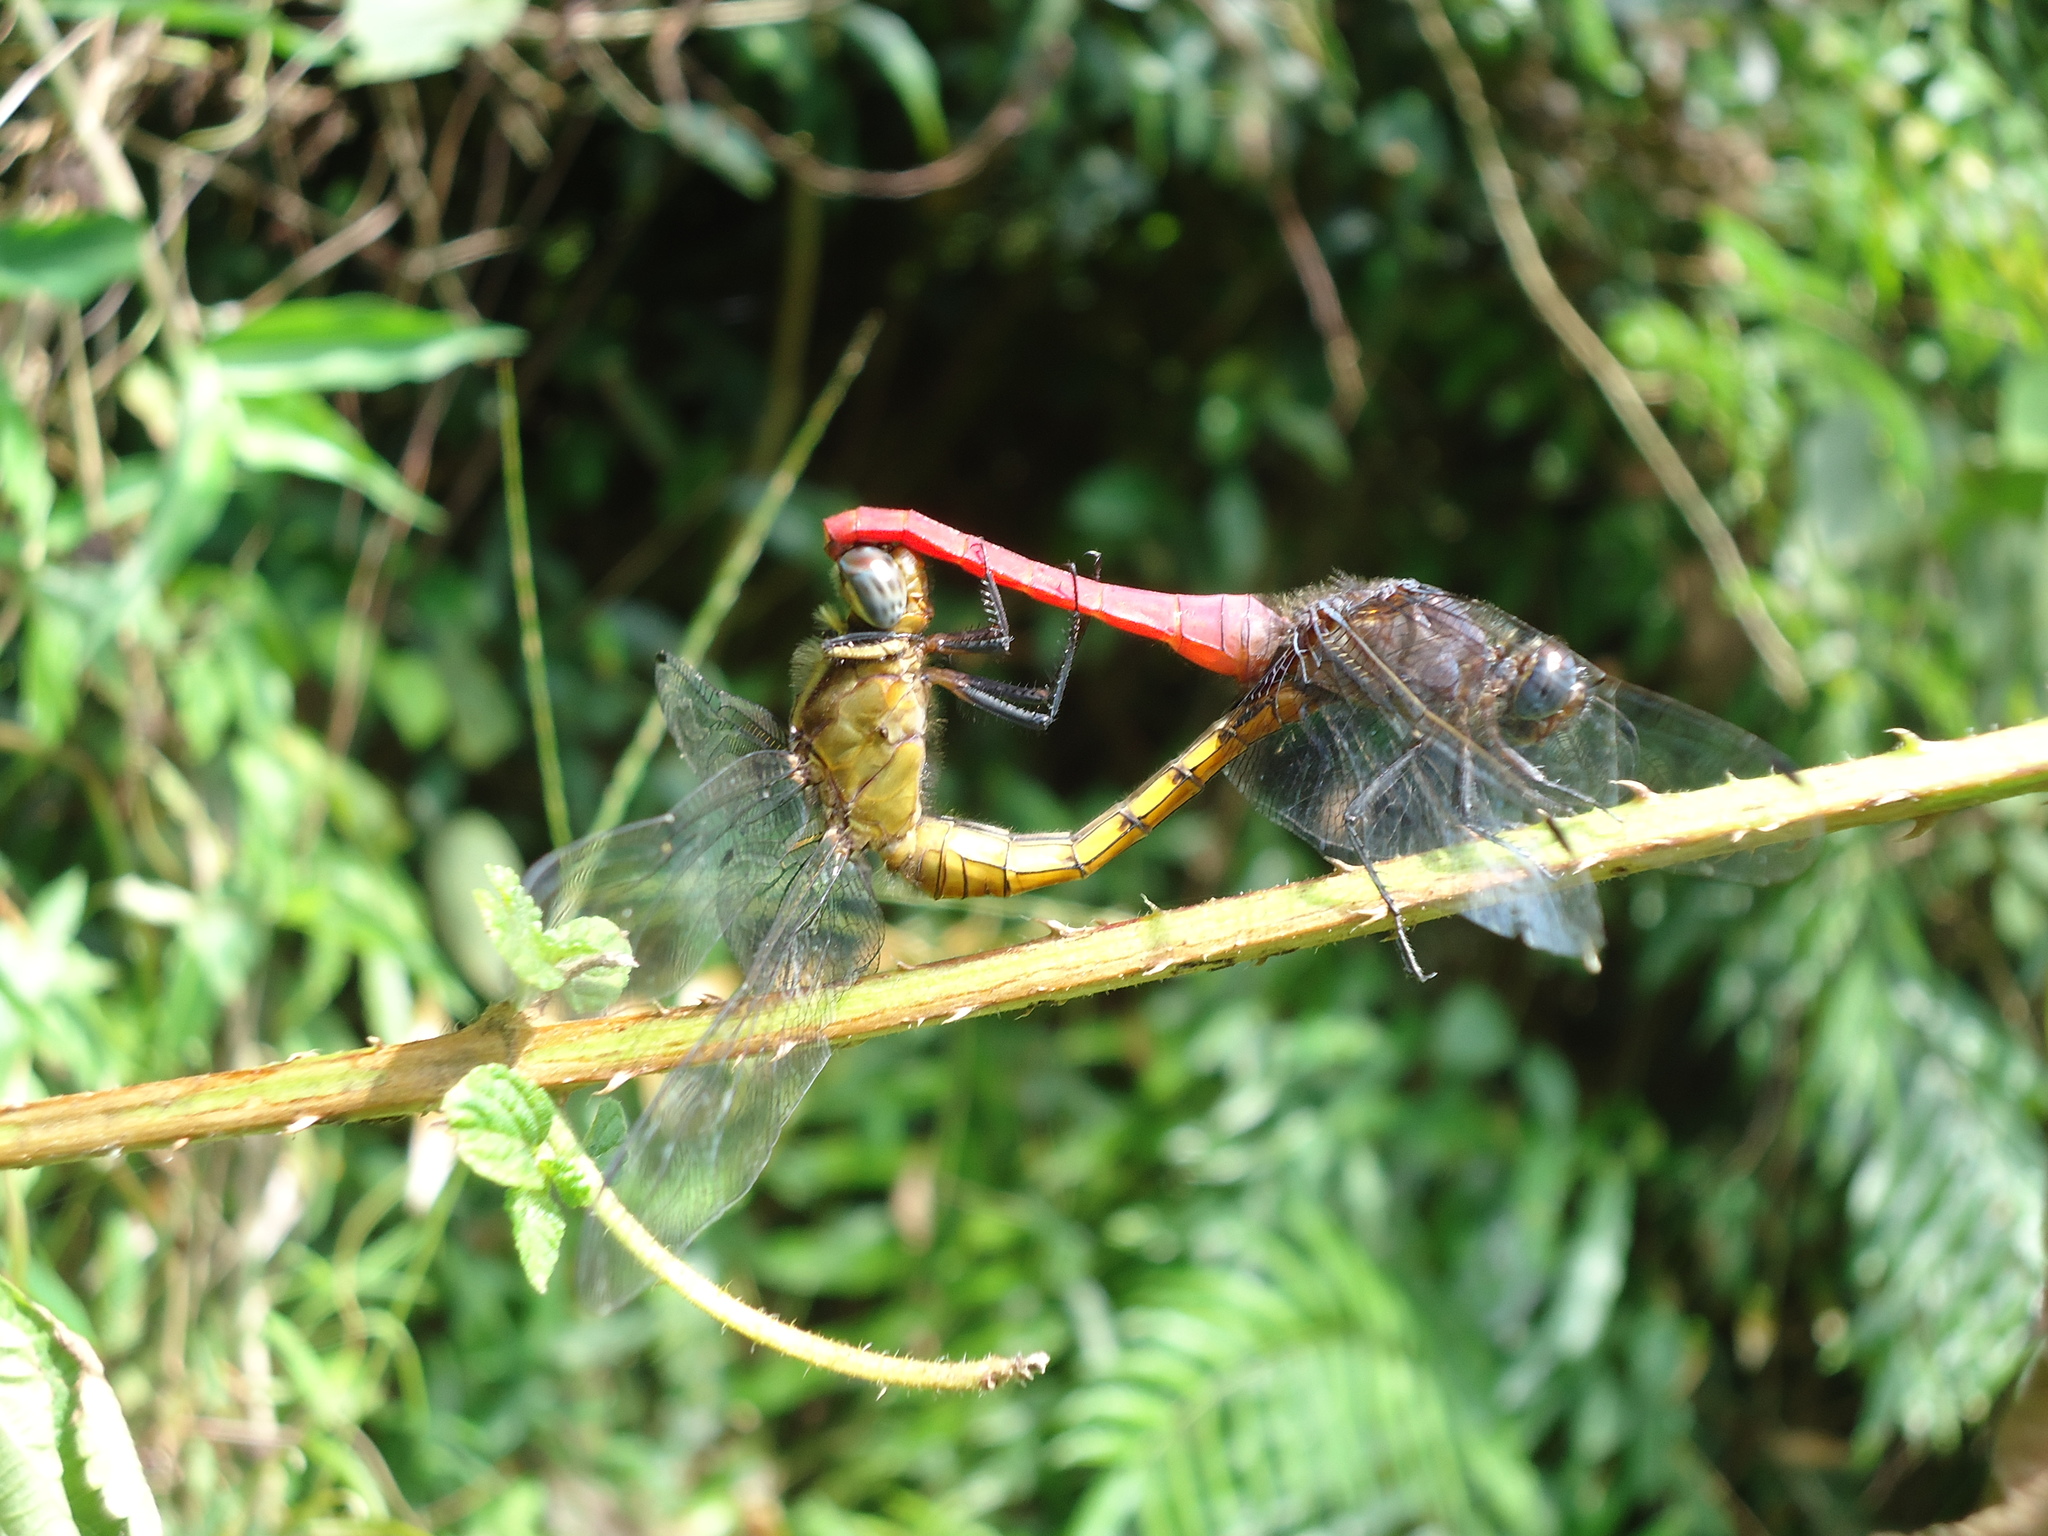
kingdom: Animalia
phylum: Arthropoda
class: Insecta
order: Odonata
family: Libellulidae
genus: Orthetrum
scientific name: Orthetrum pruinosum
